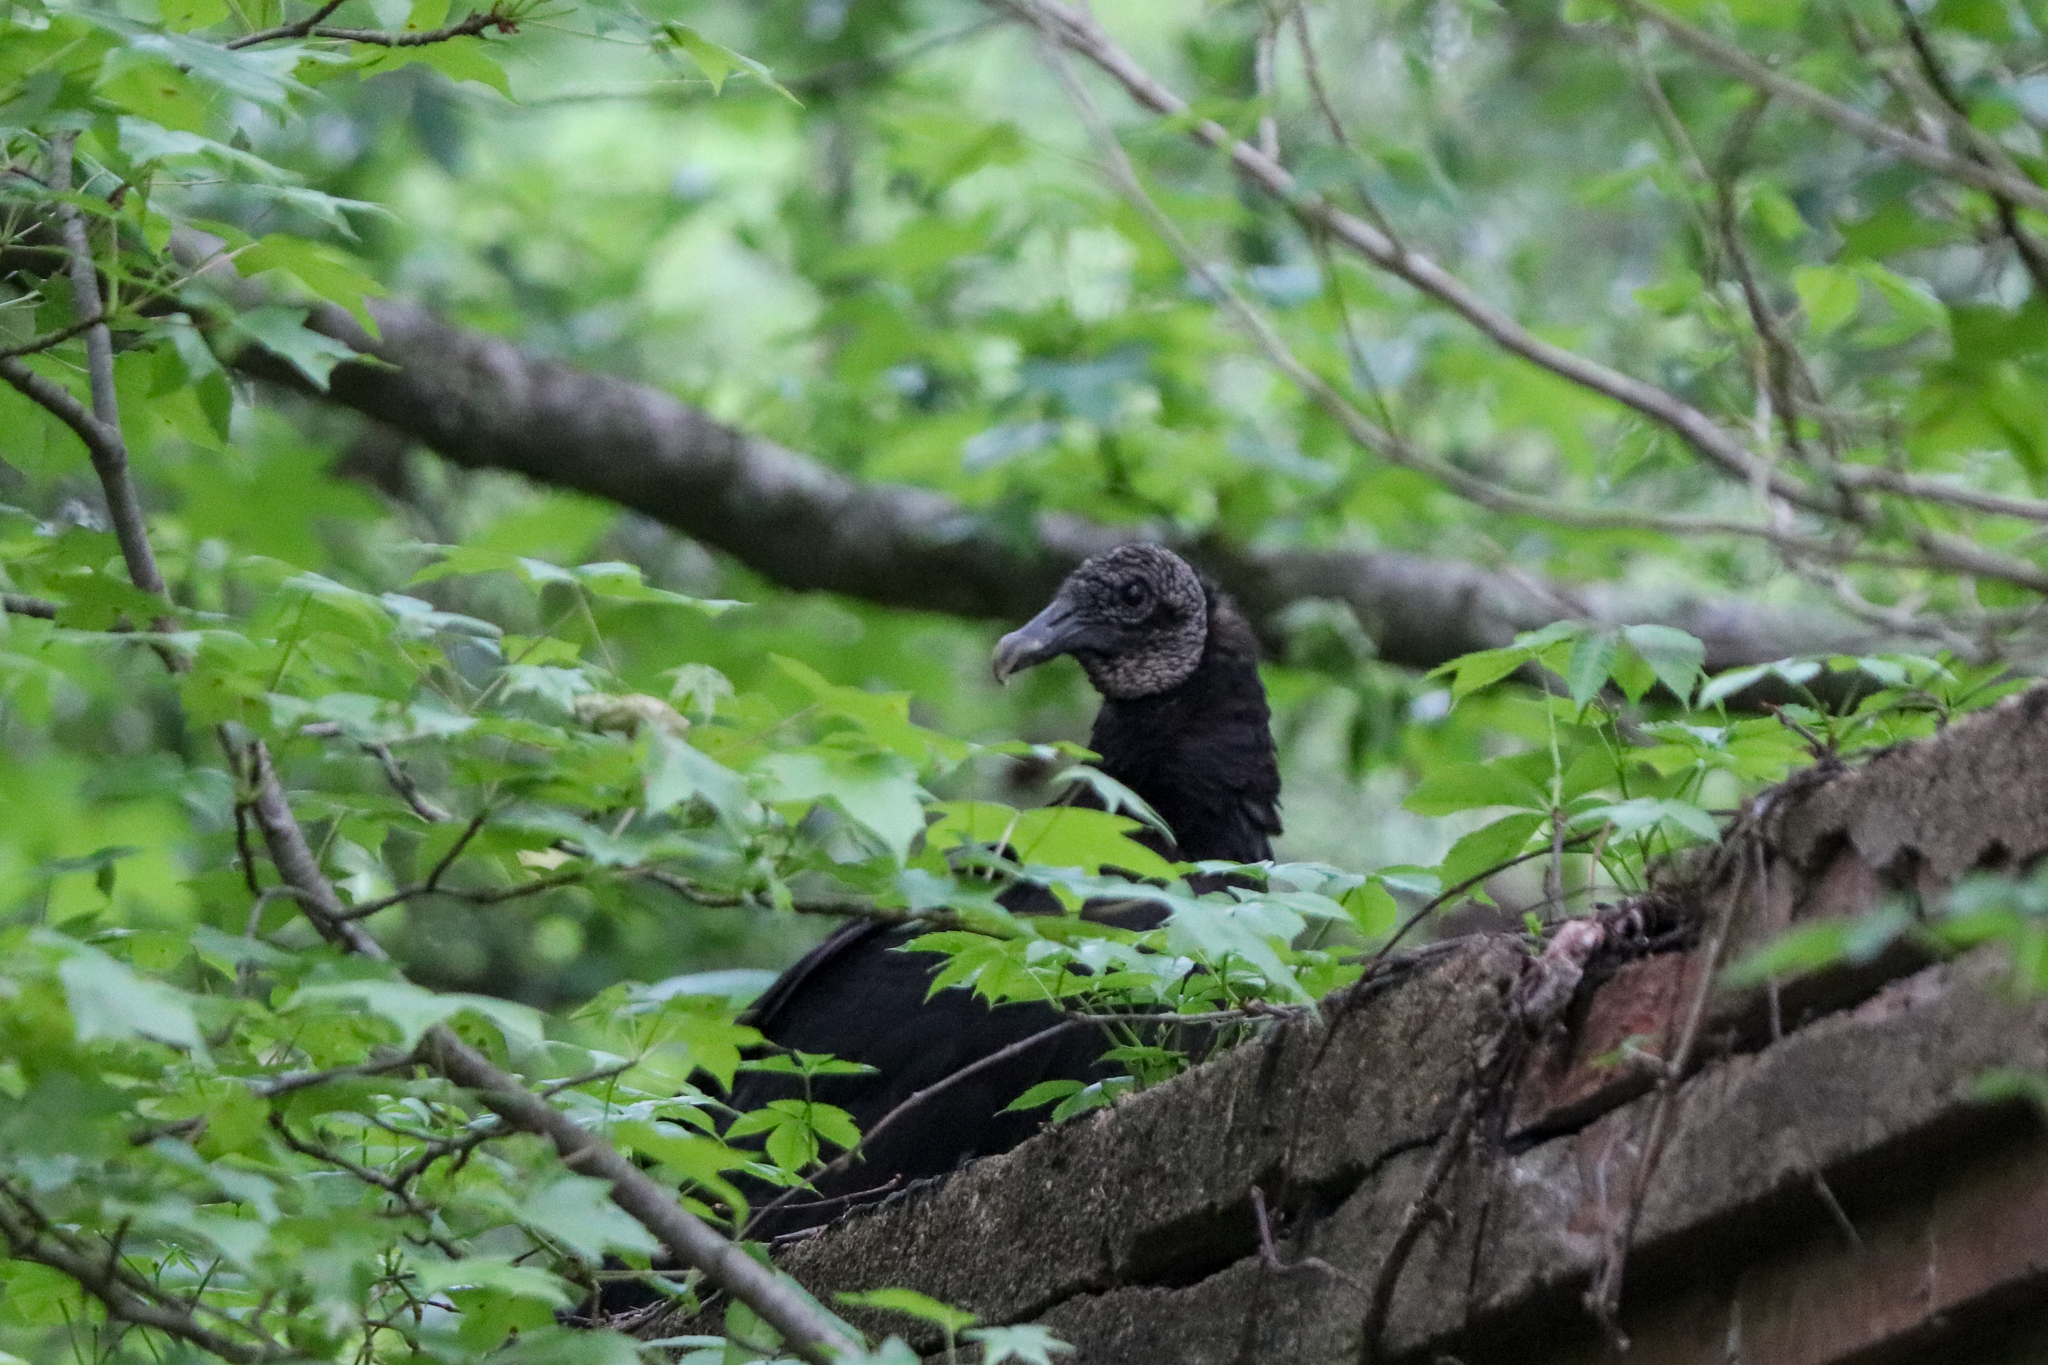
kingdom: Animalia
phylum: Chordata
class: Aves
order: Accipitriformes
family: Cathartidae
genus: Coragyps
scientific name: Coragyps atratus
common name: Black vulture
